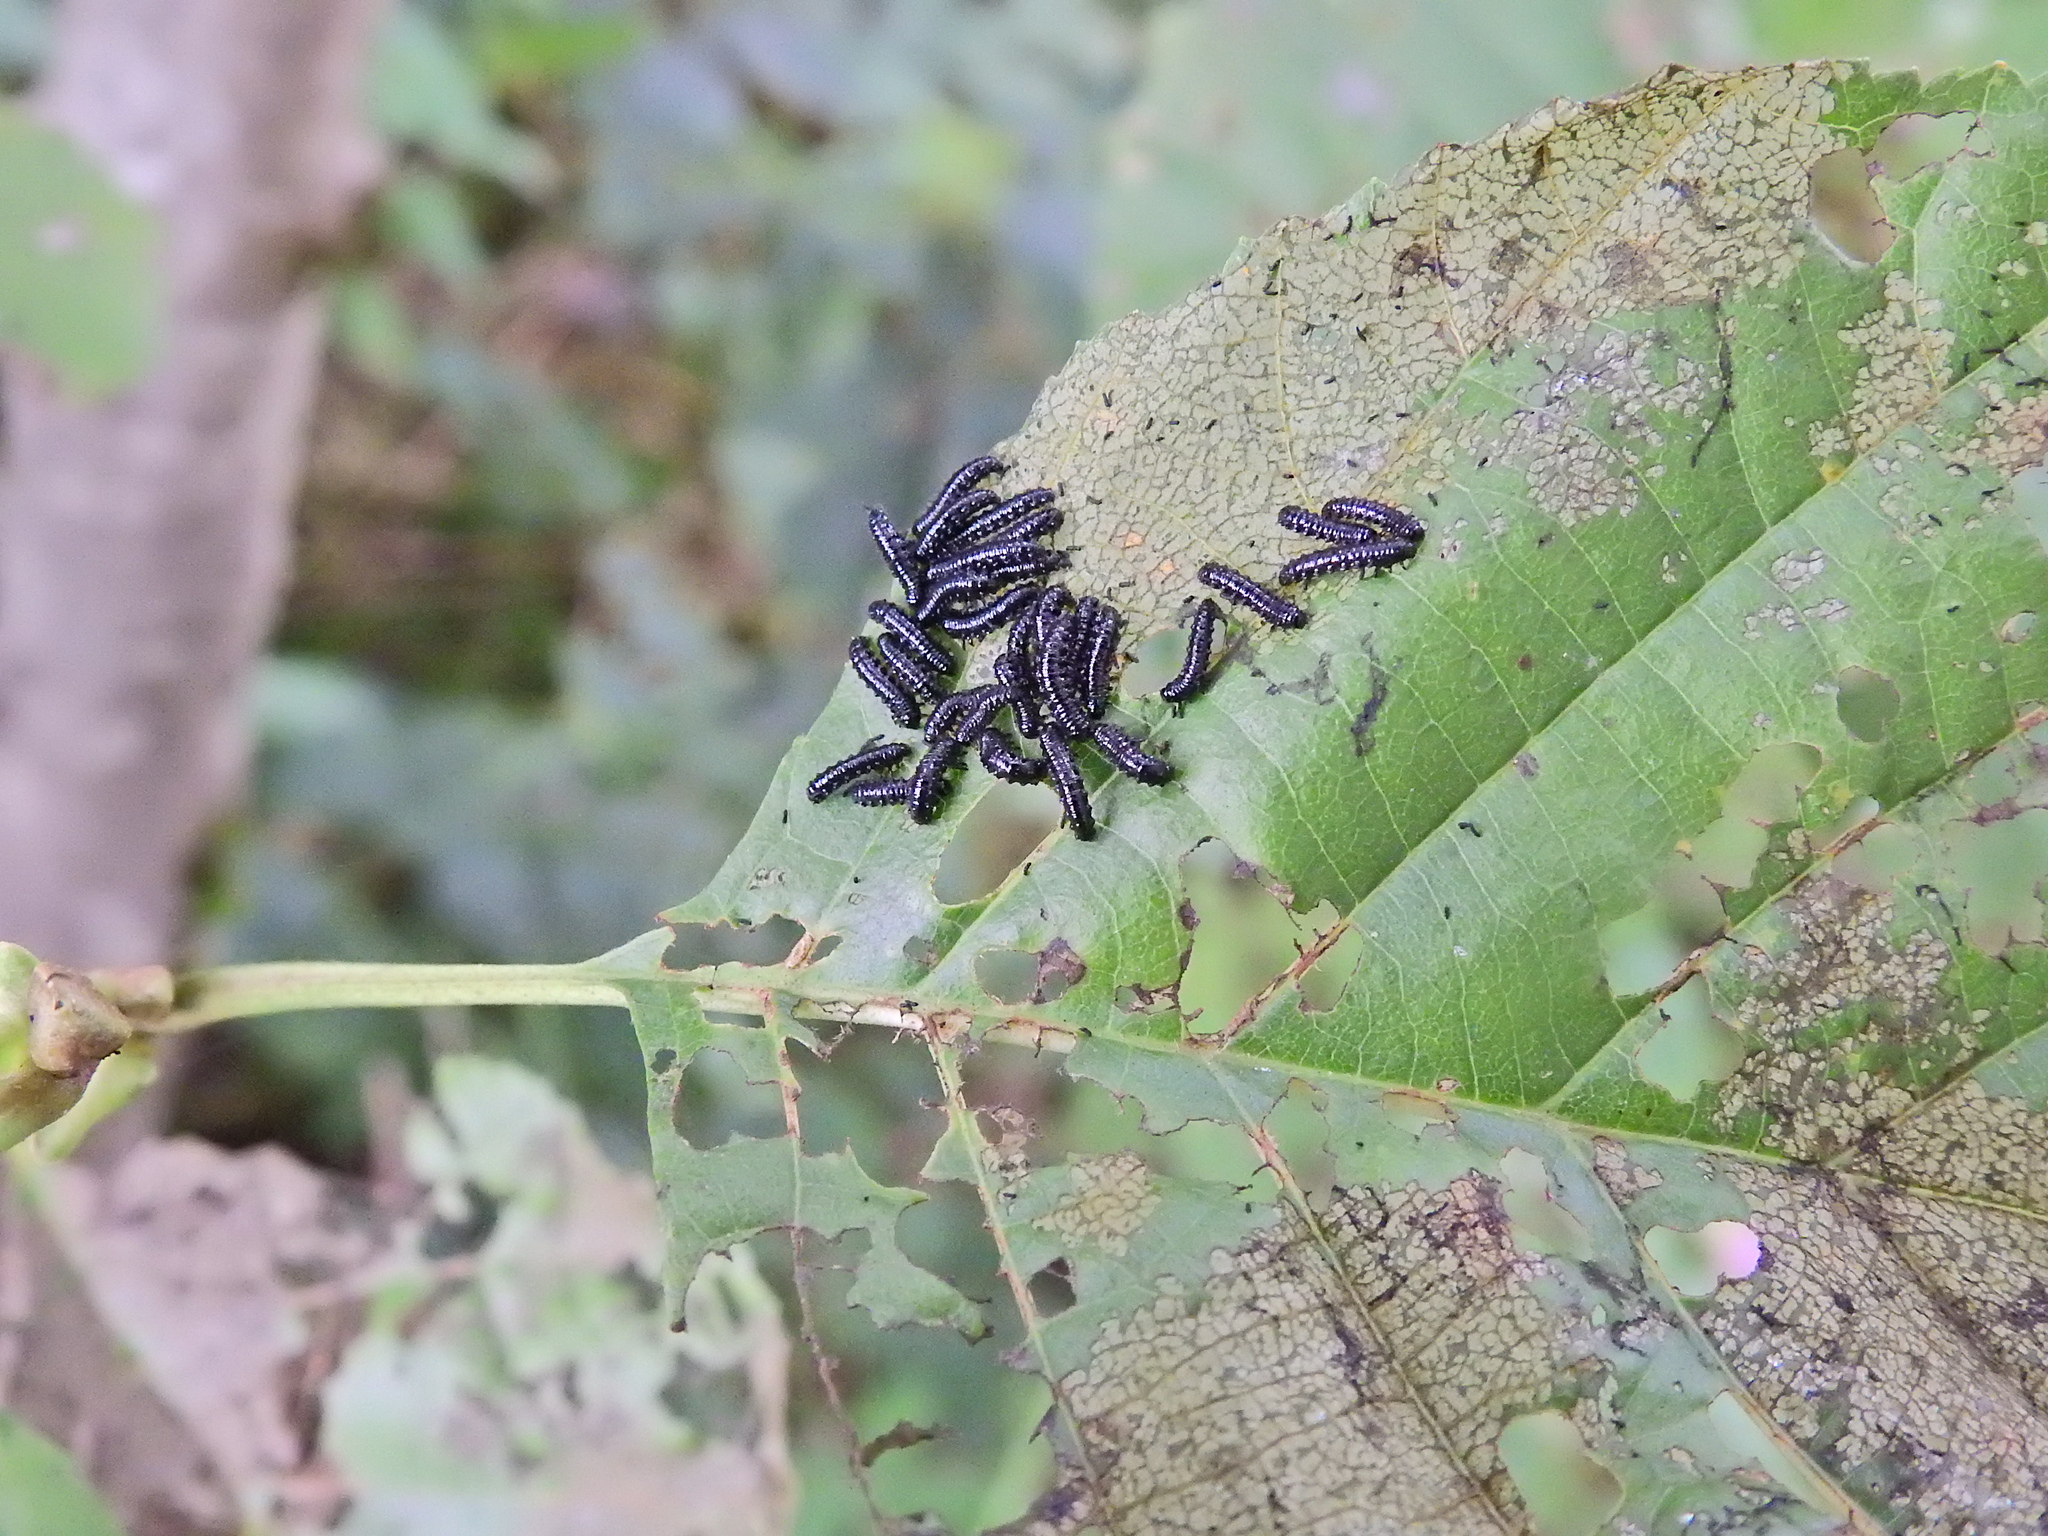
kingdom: Animalia
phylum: Arthropoda
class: Insecta
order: Coleoptera
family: Chrysomelidae
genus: Agelastica
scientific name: Agelastica alni
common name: Alder leaf beetle
